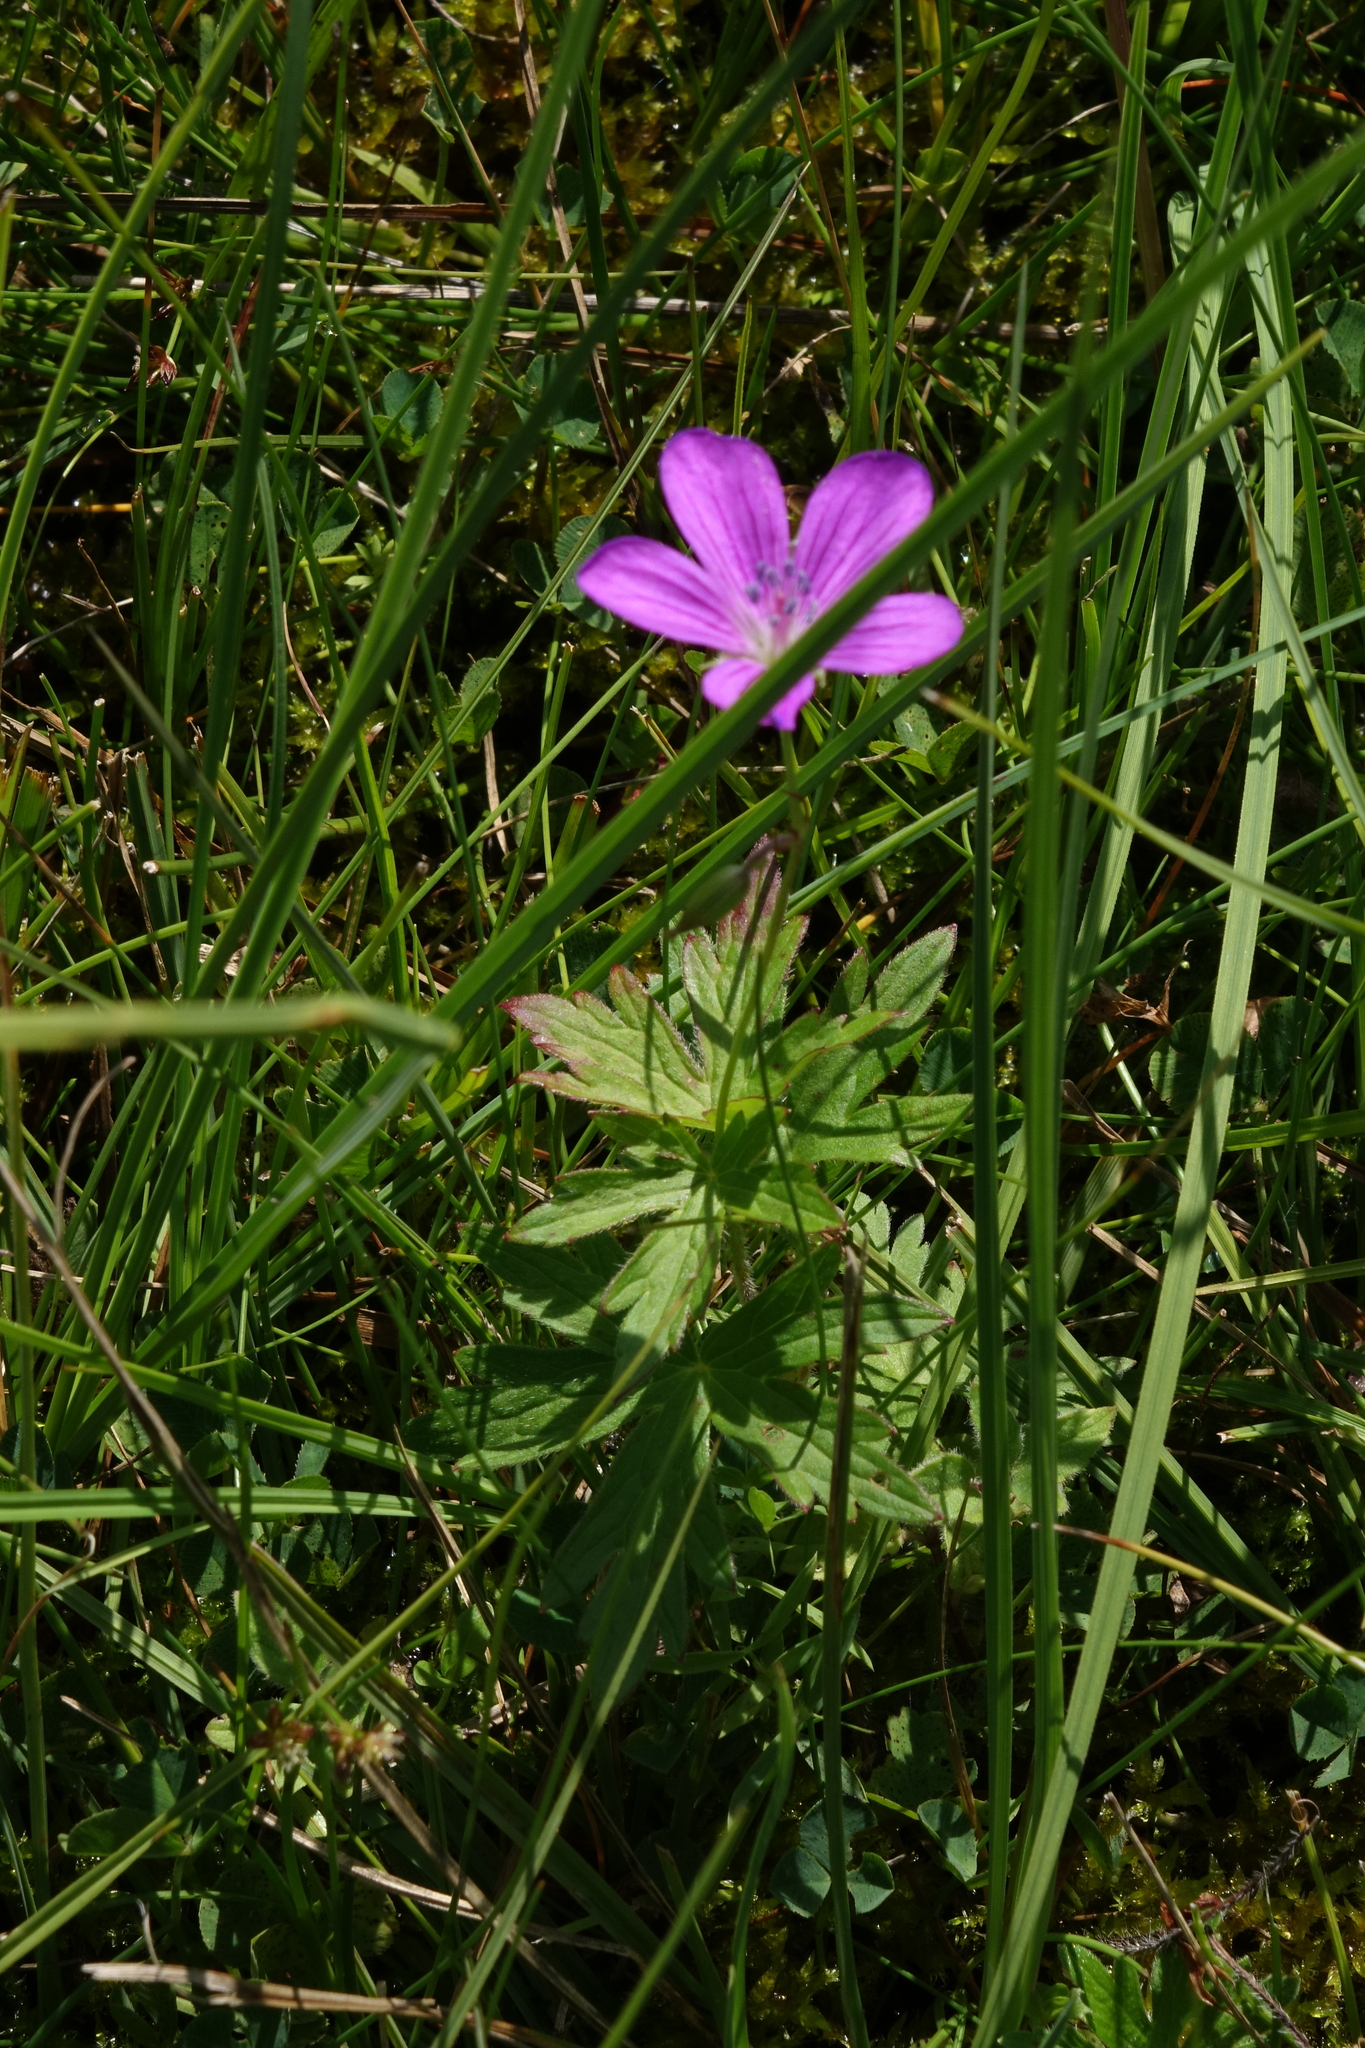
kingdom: Plantae
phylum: Tracheophyta
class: Magnoliopsida
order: Geraniales
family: Geraniaceae
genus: Geranium
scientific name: Geranium palustre
